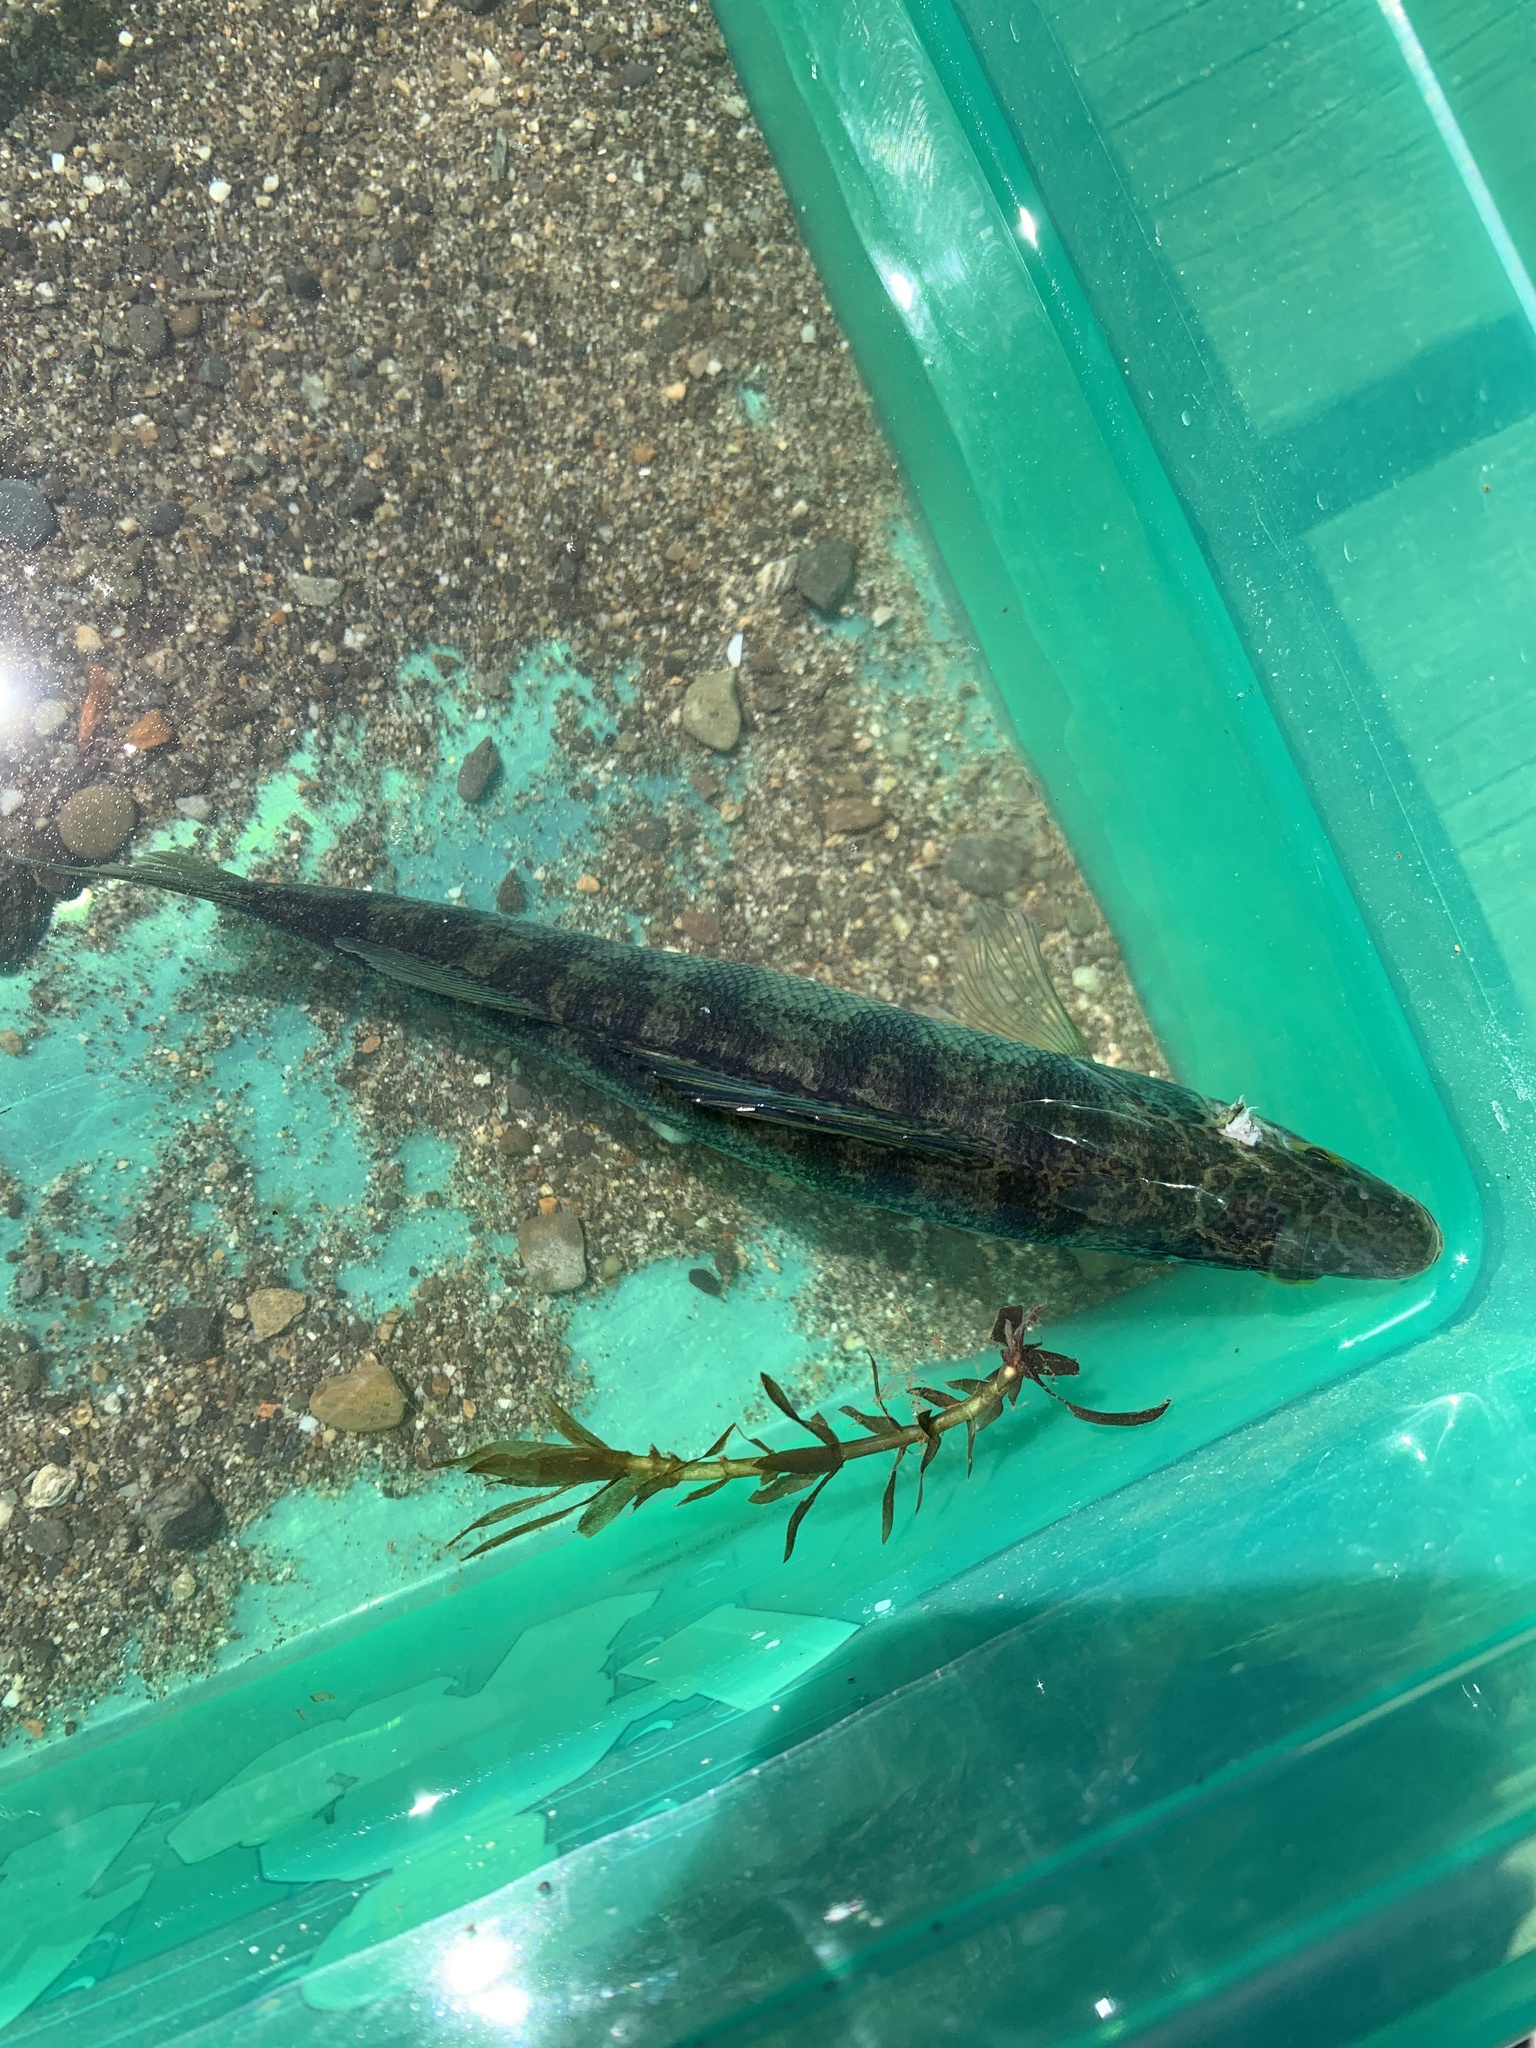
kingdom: Animalia
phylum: Chordata
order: Perciformes
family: Percidae
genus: Perca
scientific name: Perca flavescens
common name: Yellow perch
